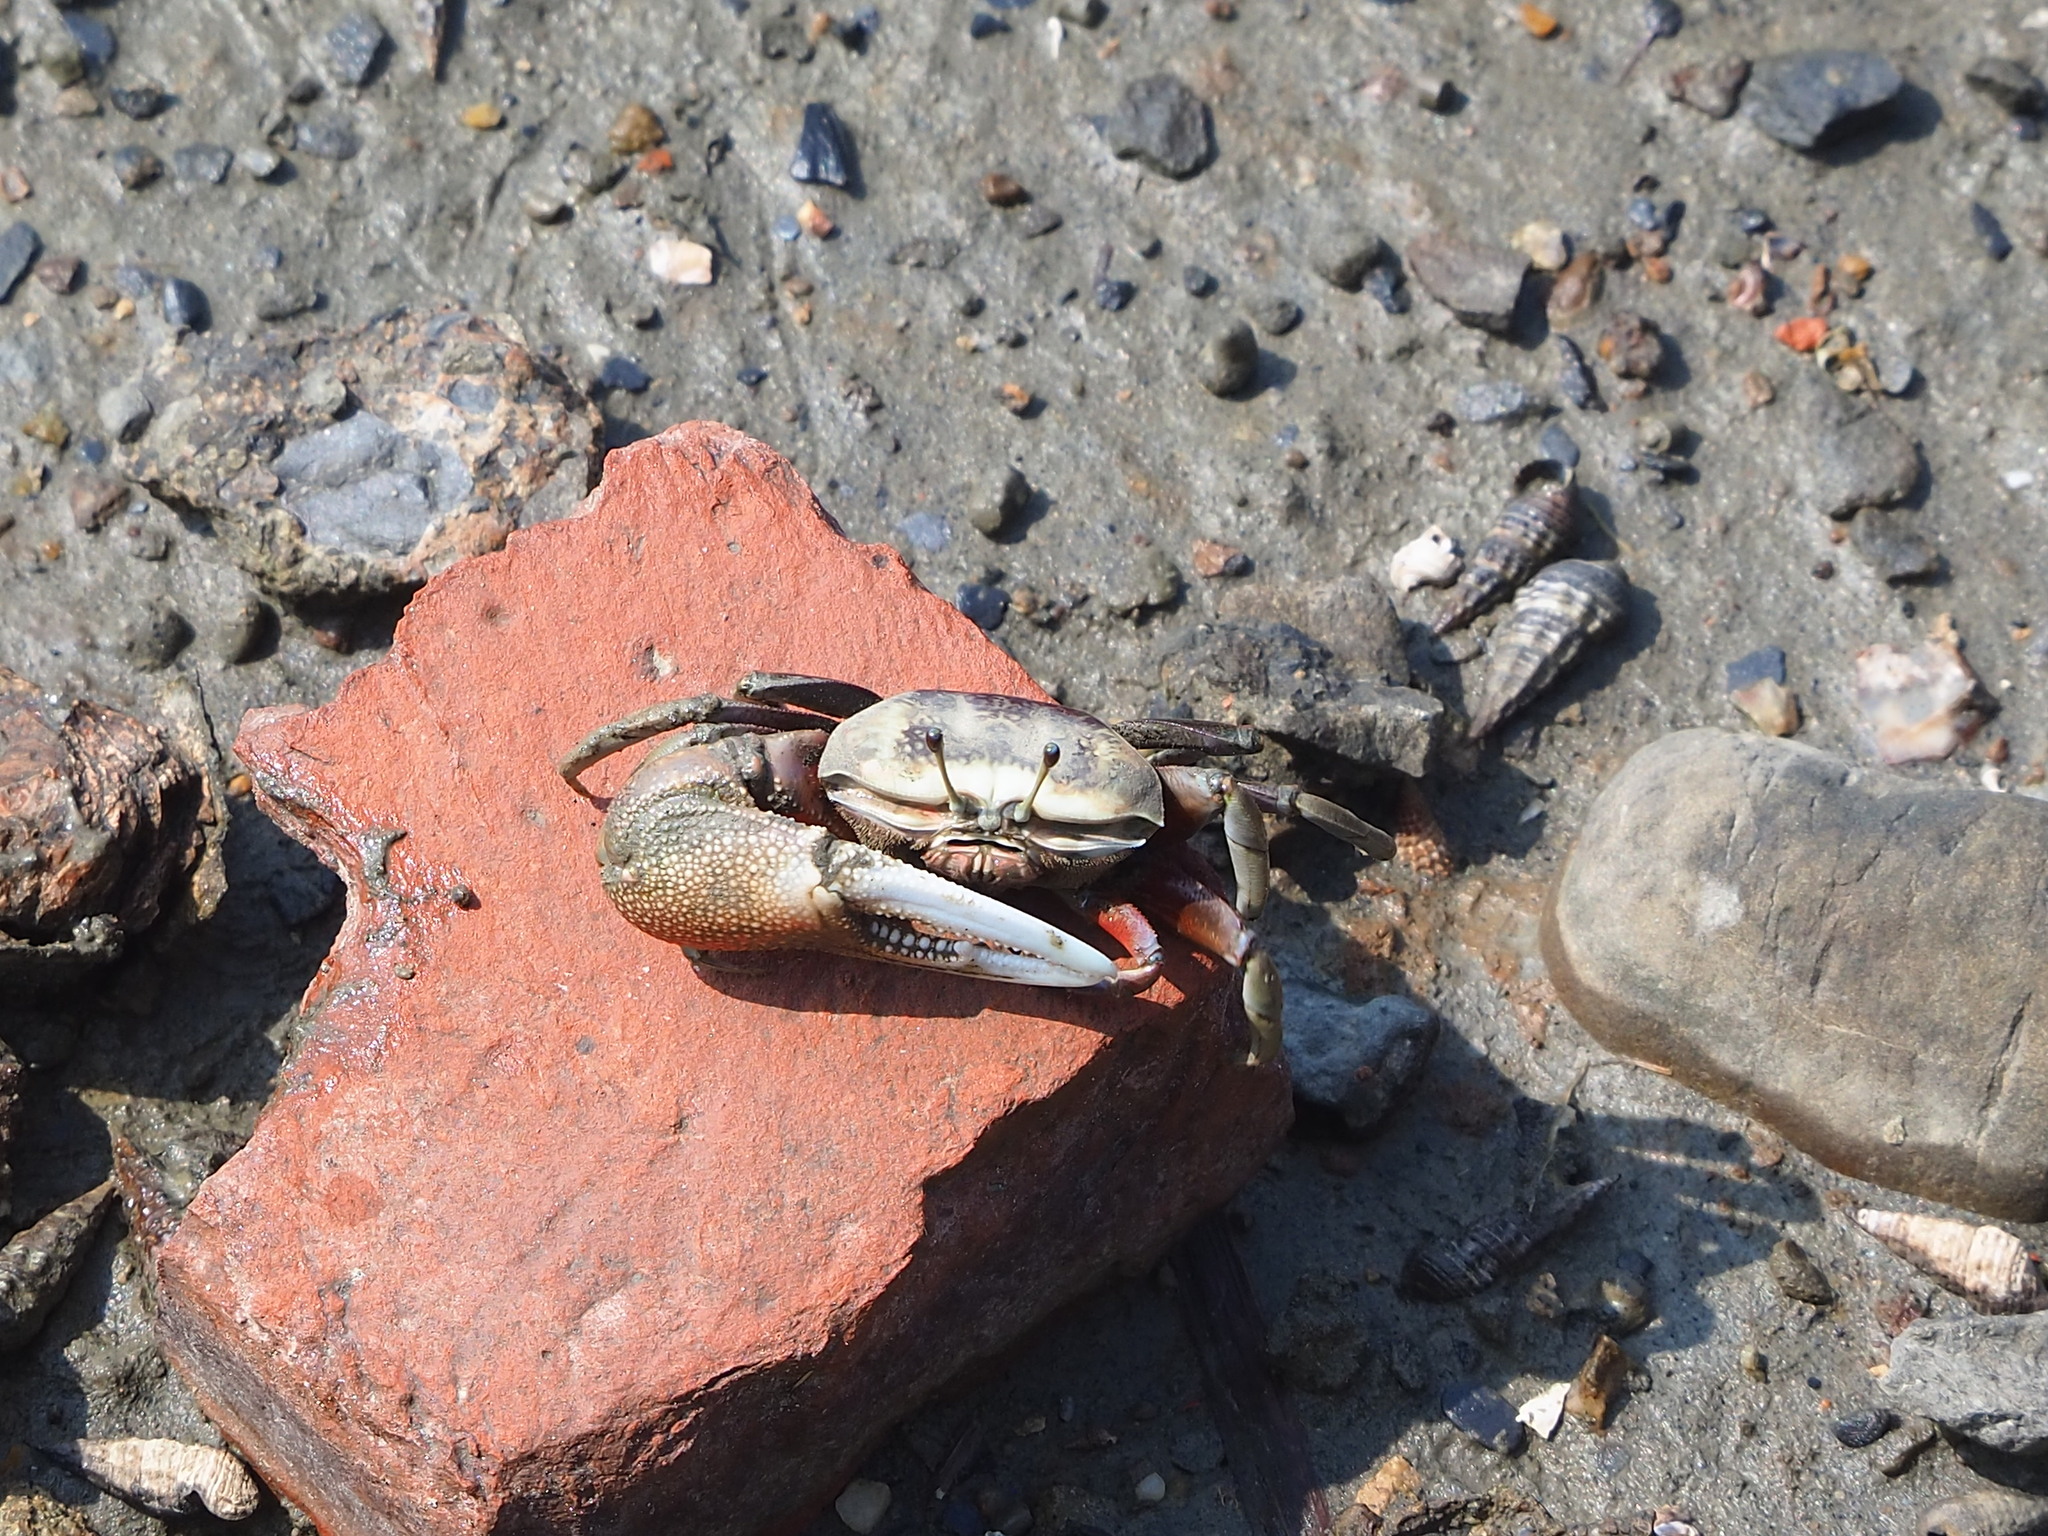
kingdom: Animalia
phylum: Arthropoda
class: Malacostraca
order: Decapoda
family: Ocypodidae
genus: Tubuca
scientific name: Tubuca arcuata
